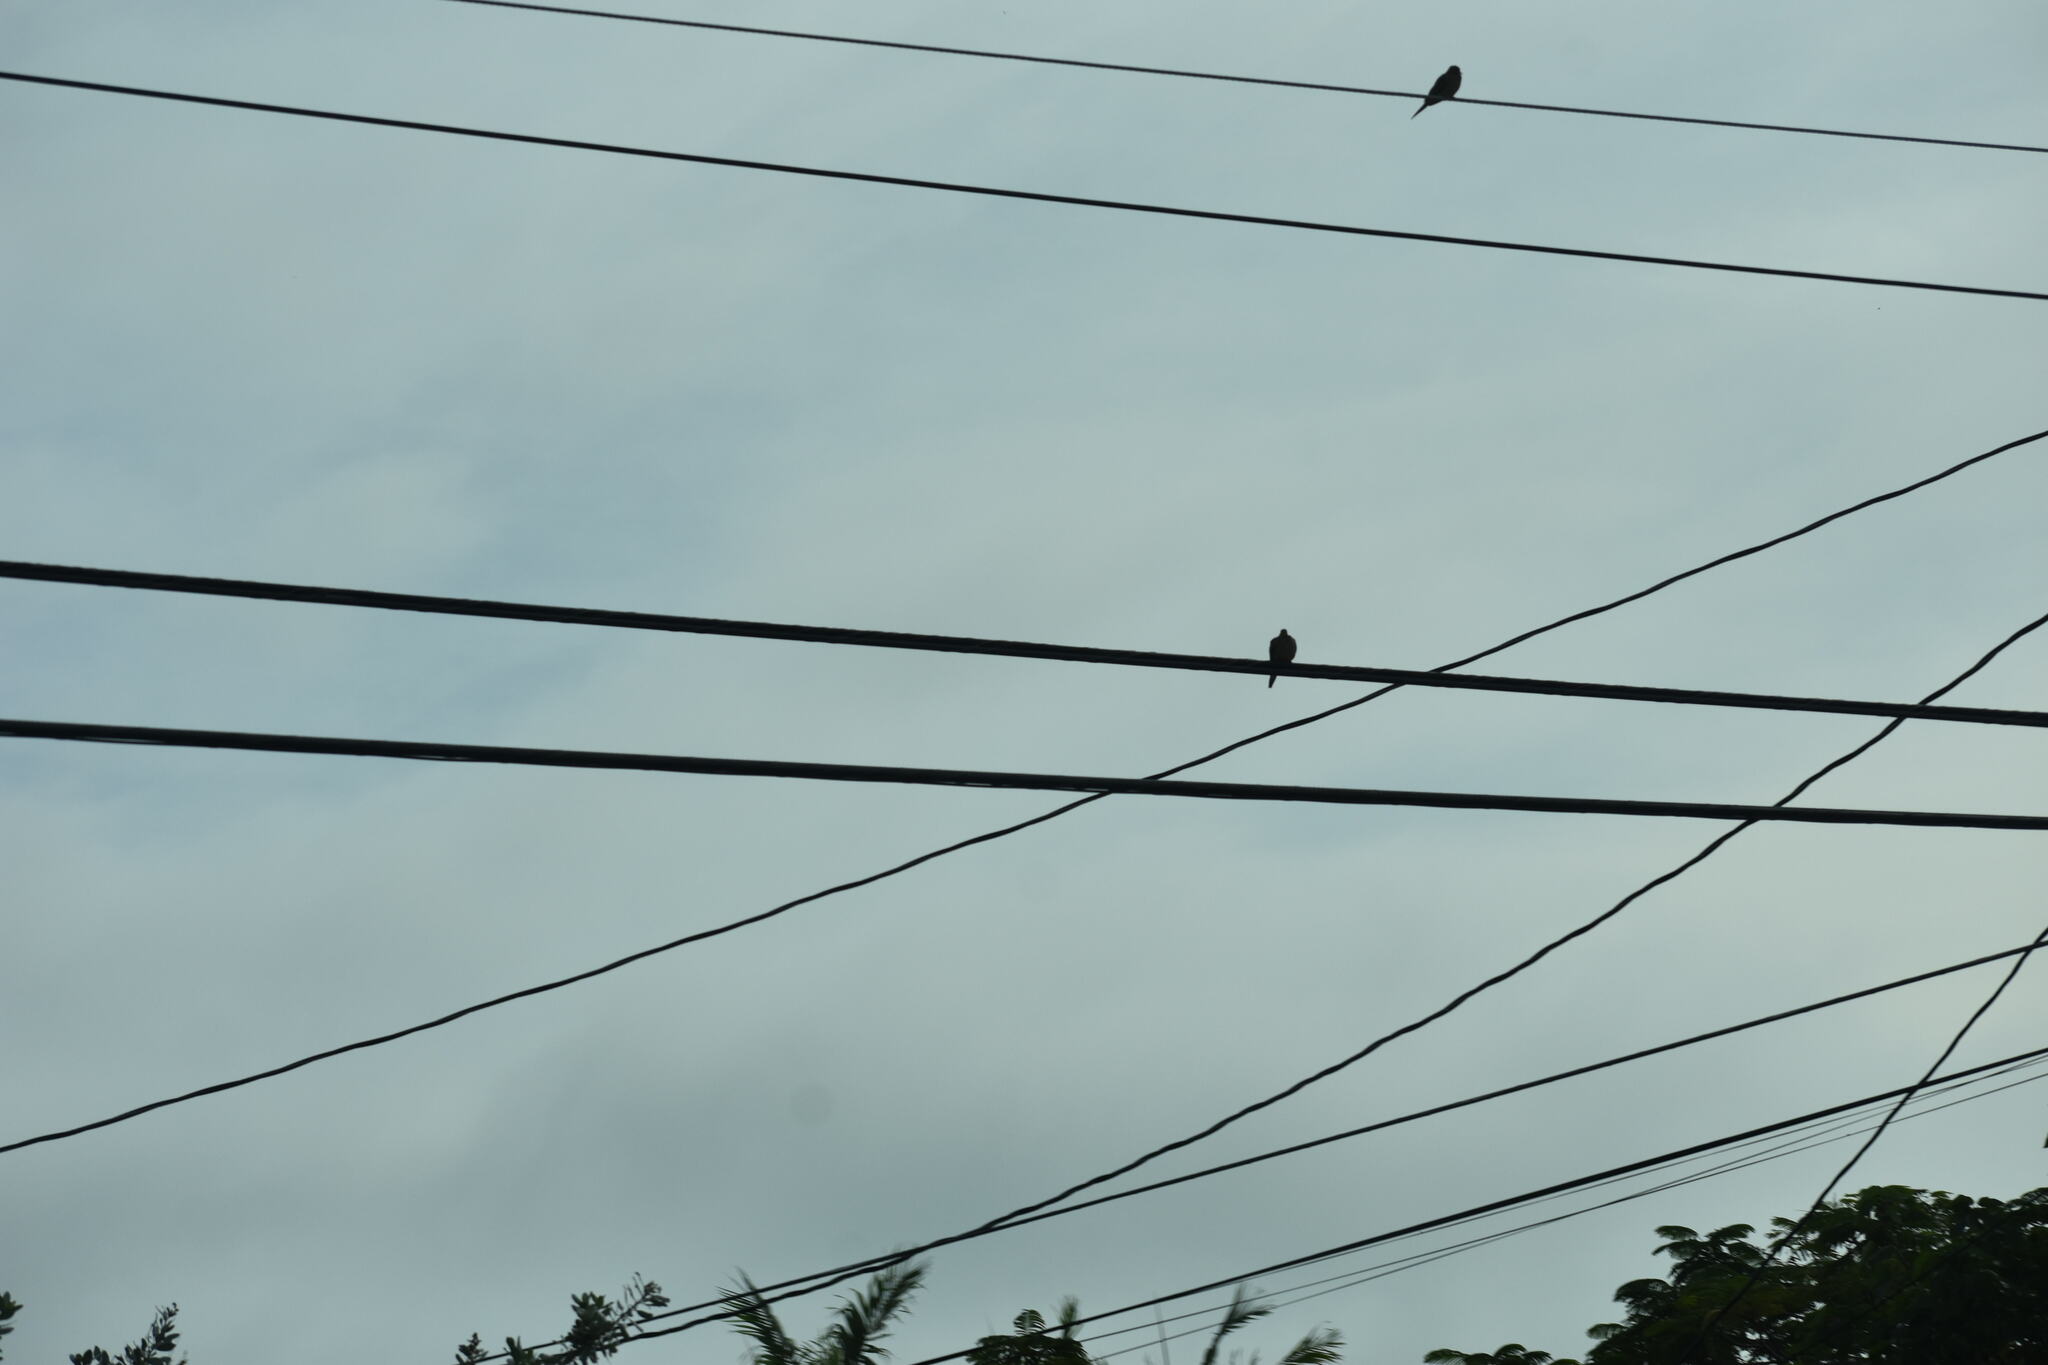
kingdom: Animalia
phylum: Chordata
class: Aves
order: Columbiformes
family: Columbidae
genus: Zenaida
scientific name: Zenaida macroura
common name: Mourning dove
